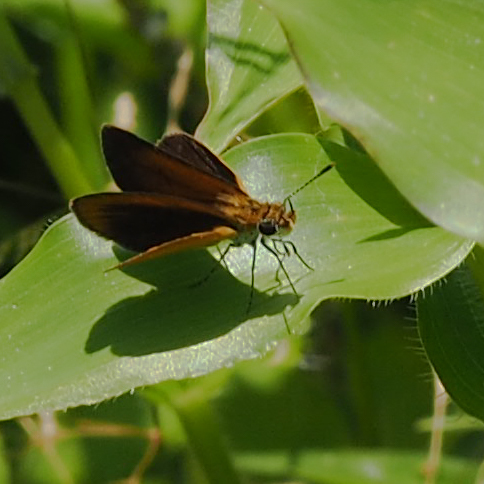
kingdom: Animalia
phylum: Arthropoda
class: Insecta
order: Lepidoptera
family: Hesperiidae
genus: Ancyloxypha
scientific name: Ancyloxypha numitor
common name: Least skipper
